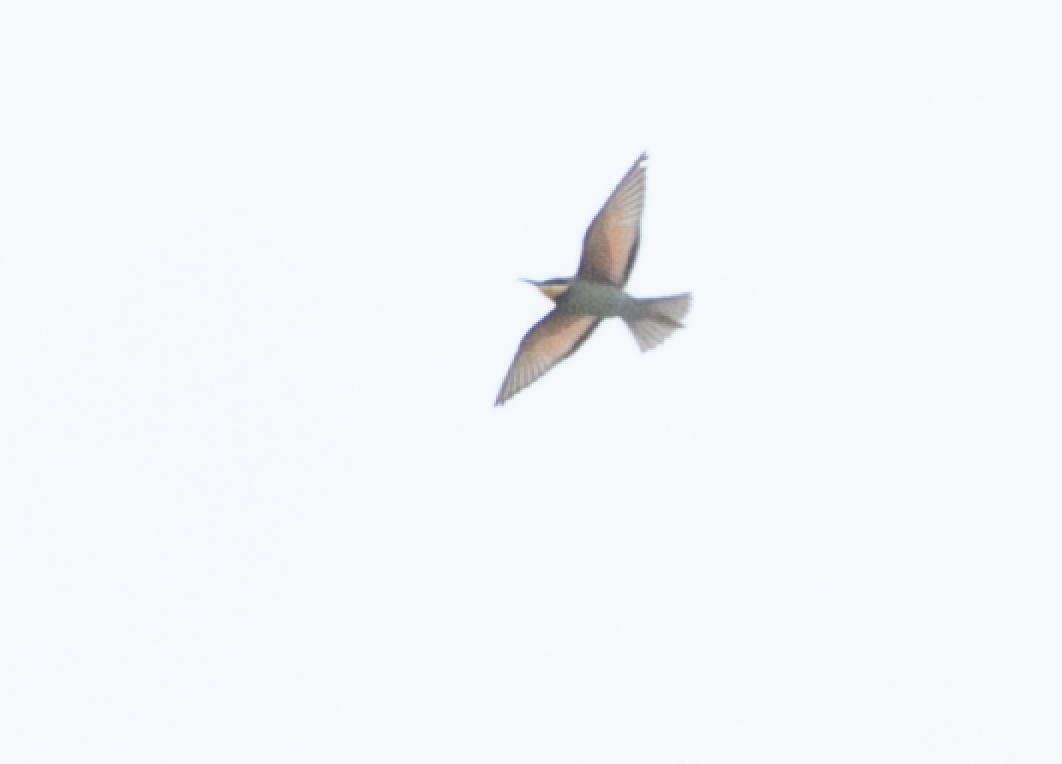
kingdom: Animalia
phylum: Chordata
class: Aves
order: Coraciiformes
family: Meropidae
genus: Merops
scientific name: Merops apiaster
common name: European bee-eater
